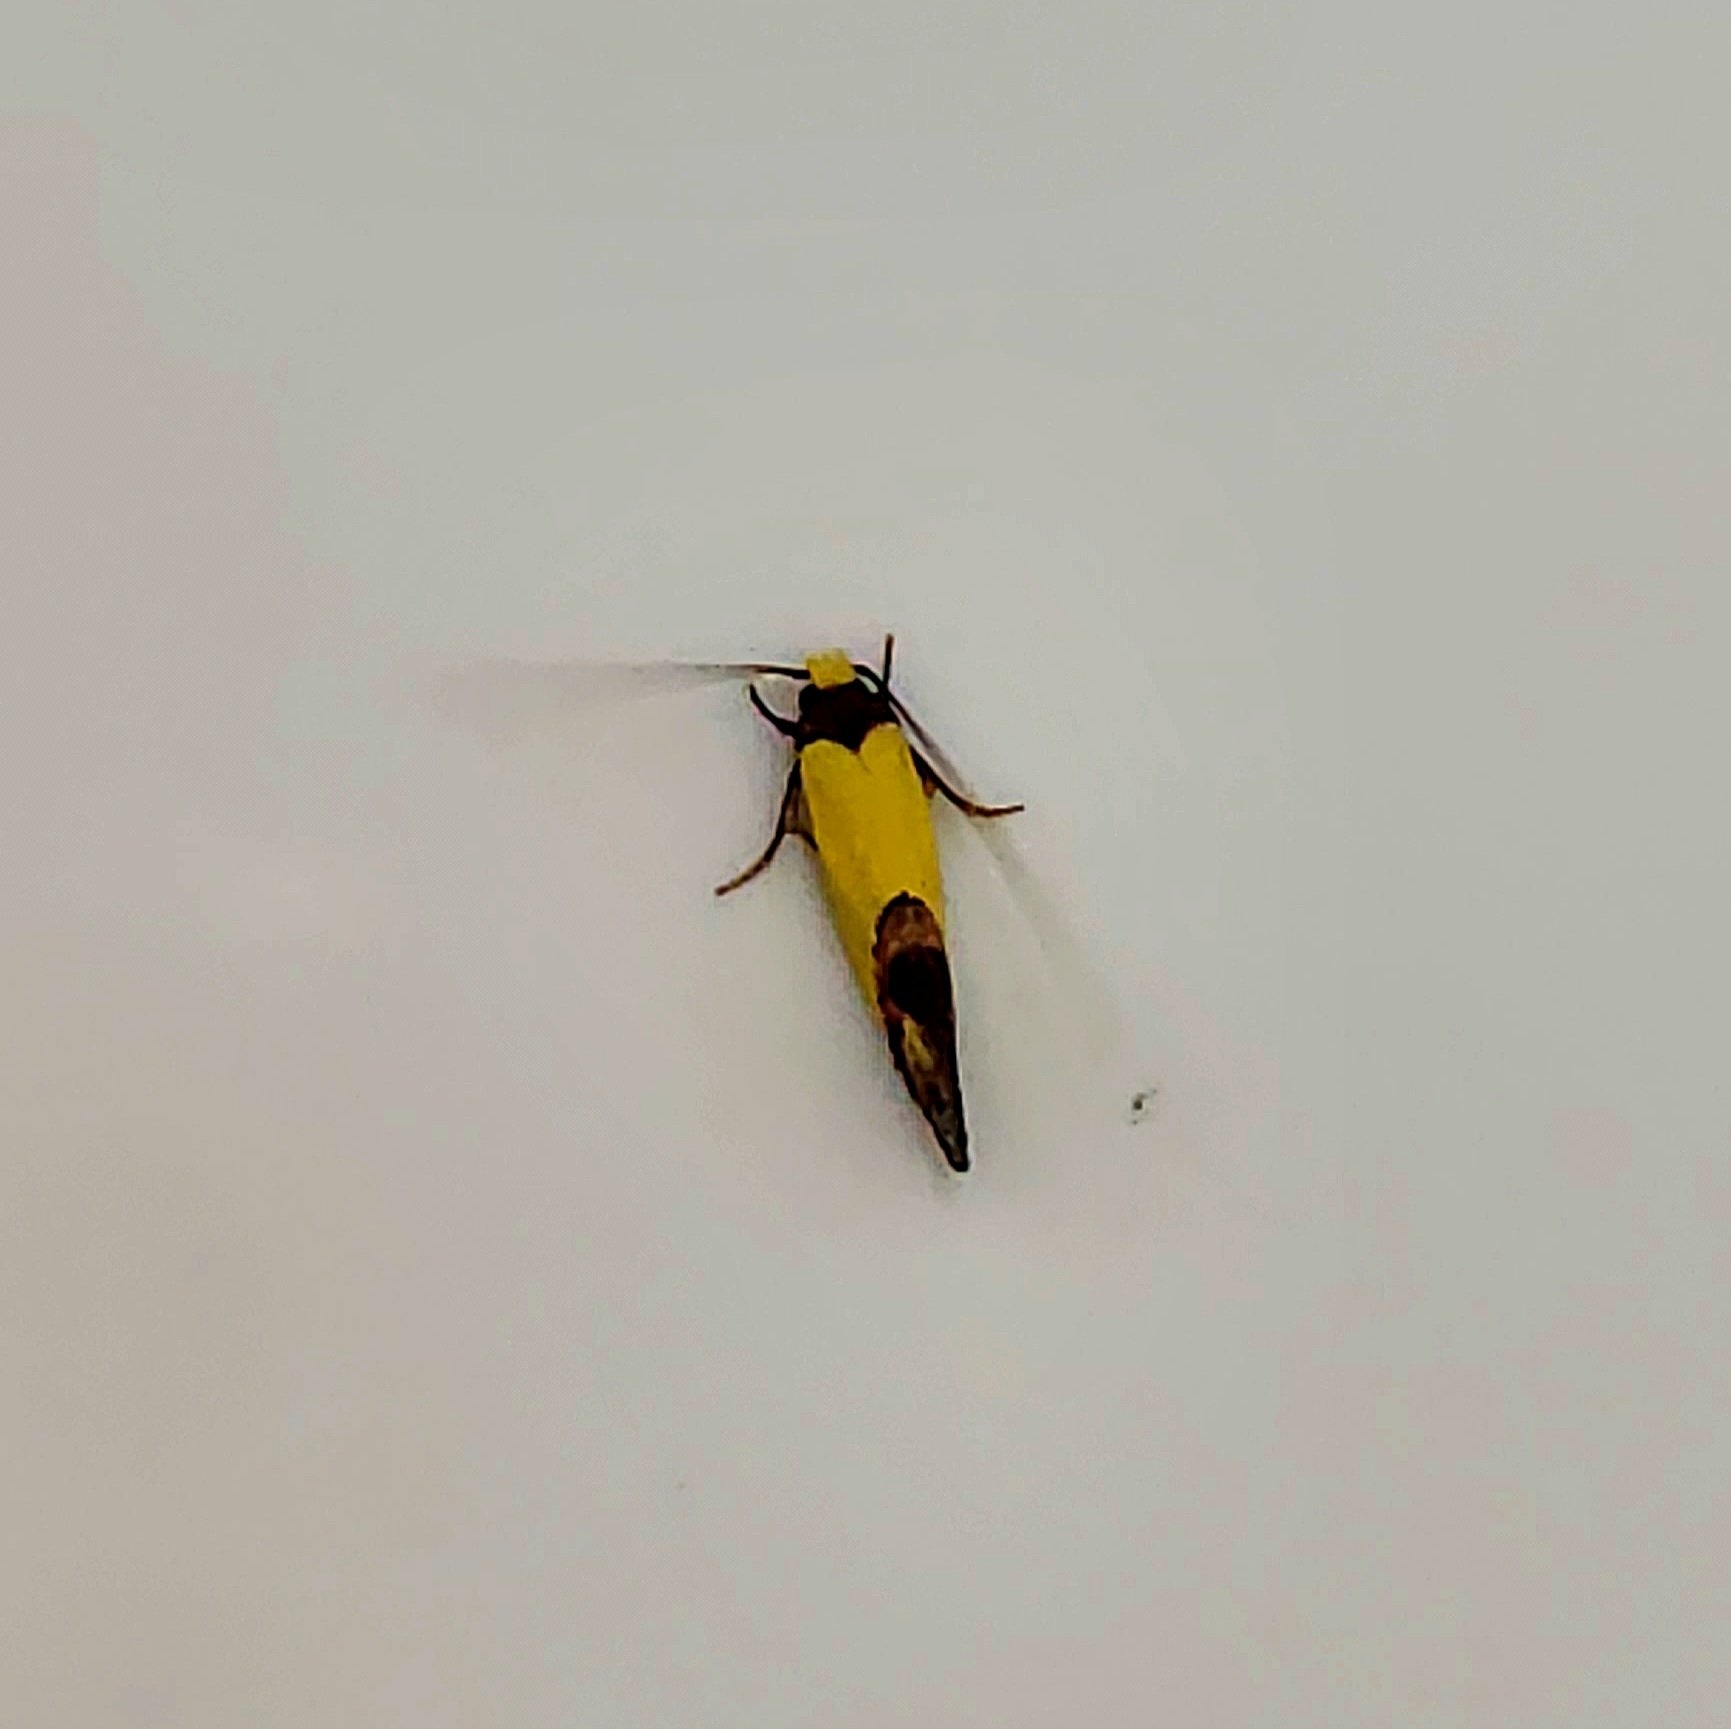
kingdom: Animalia
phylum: Arthropoda
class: Insecta
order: Lepidoptera
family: Tineidae
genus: Edosa
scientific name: Edosa fraudulens
